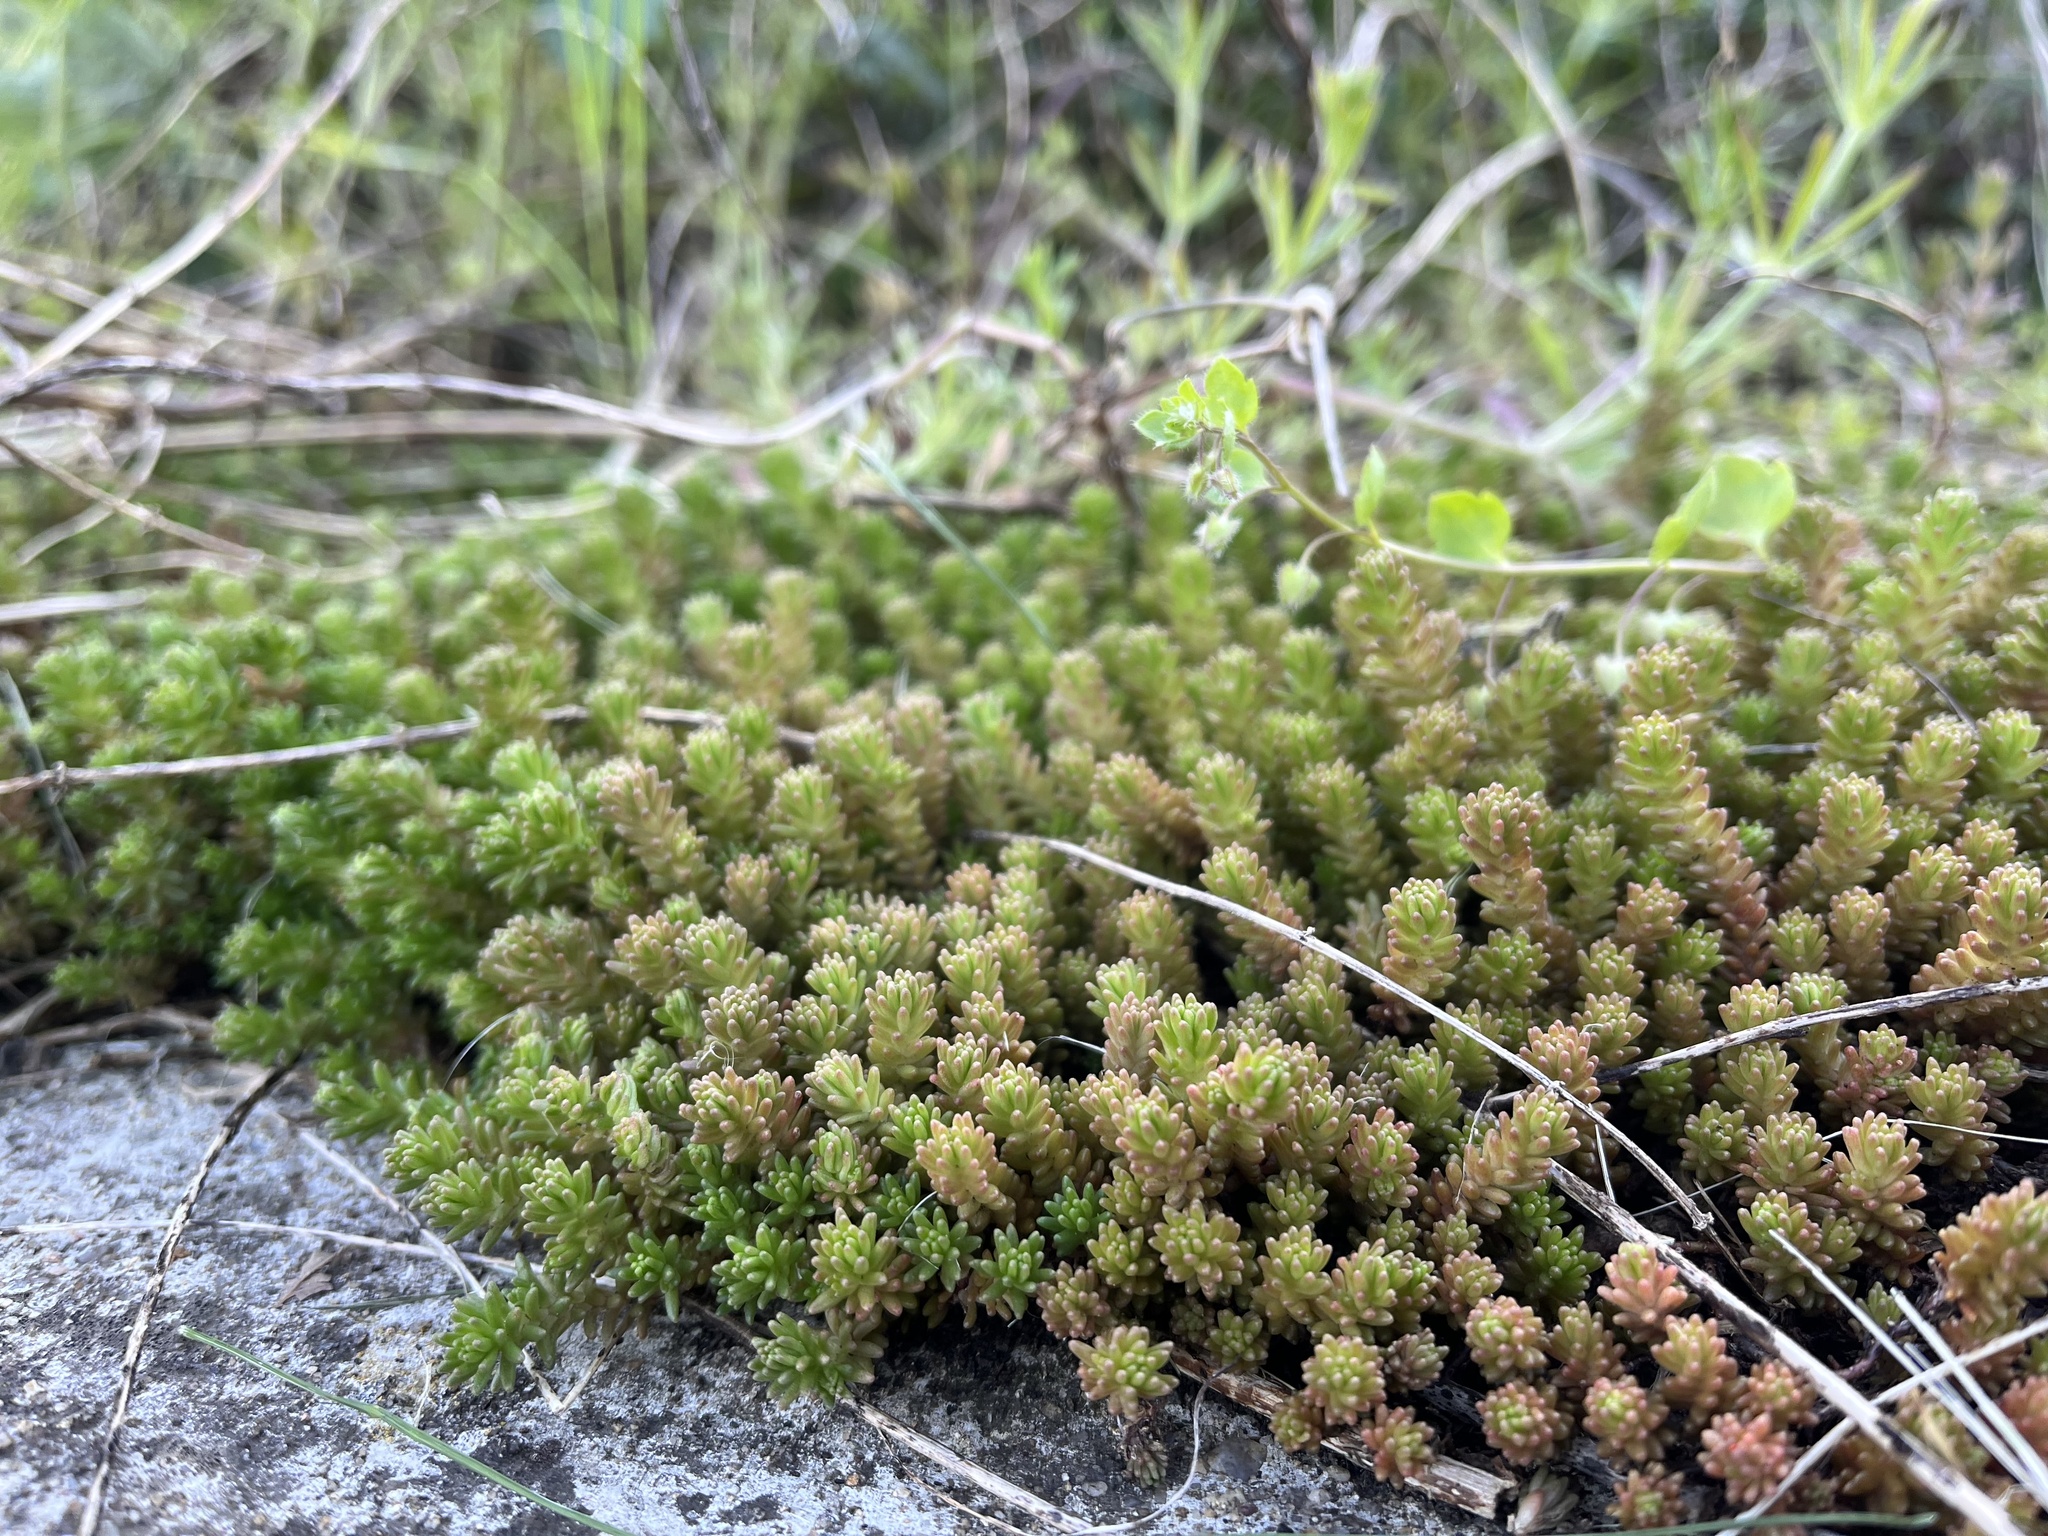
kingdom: Plantae
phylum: Tracheophyta
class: Magnoliopsida
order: Saxifragales
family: Crassulaceae
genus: Sedum
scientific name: Sedum sexangulare
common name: Tasteless stonecrop
